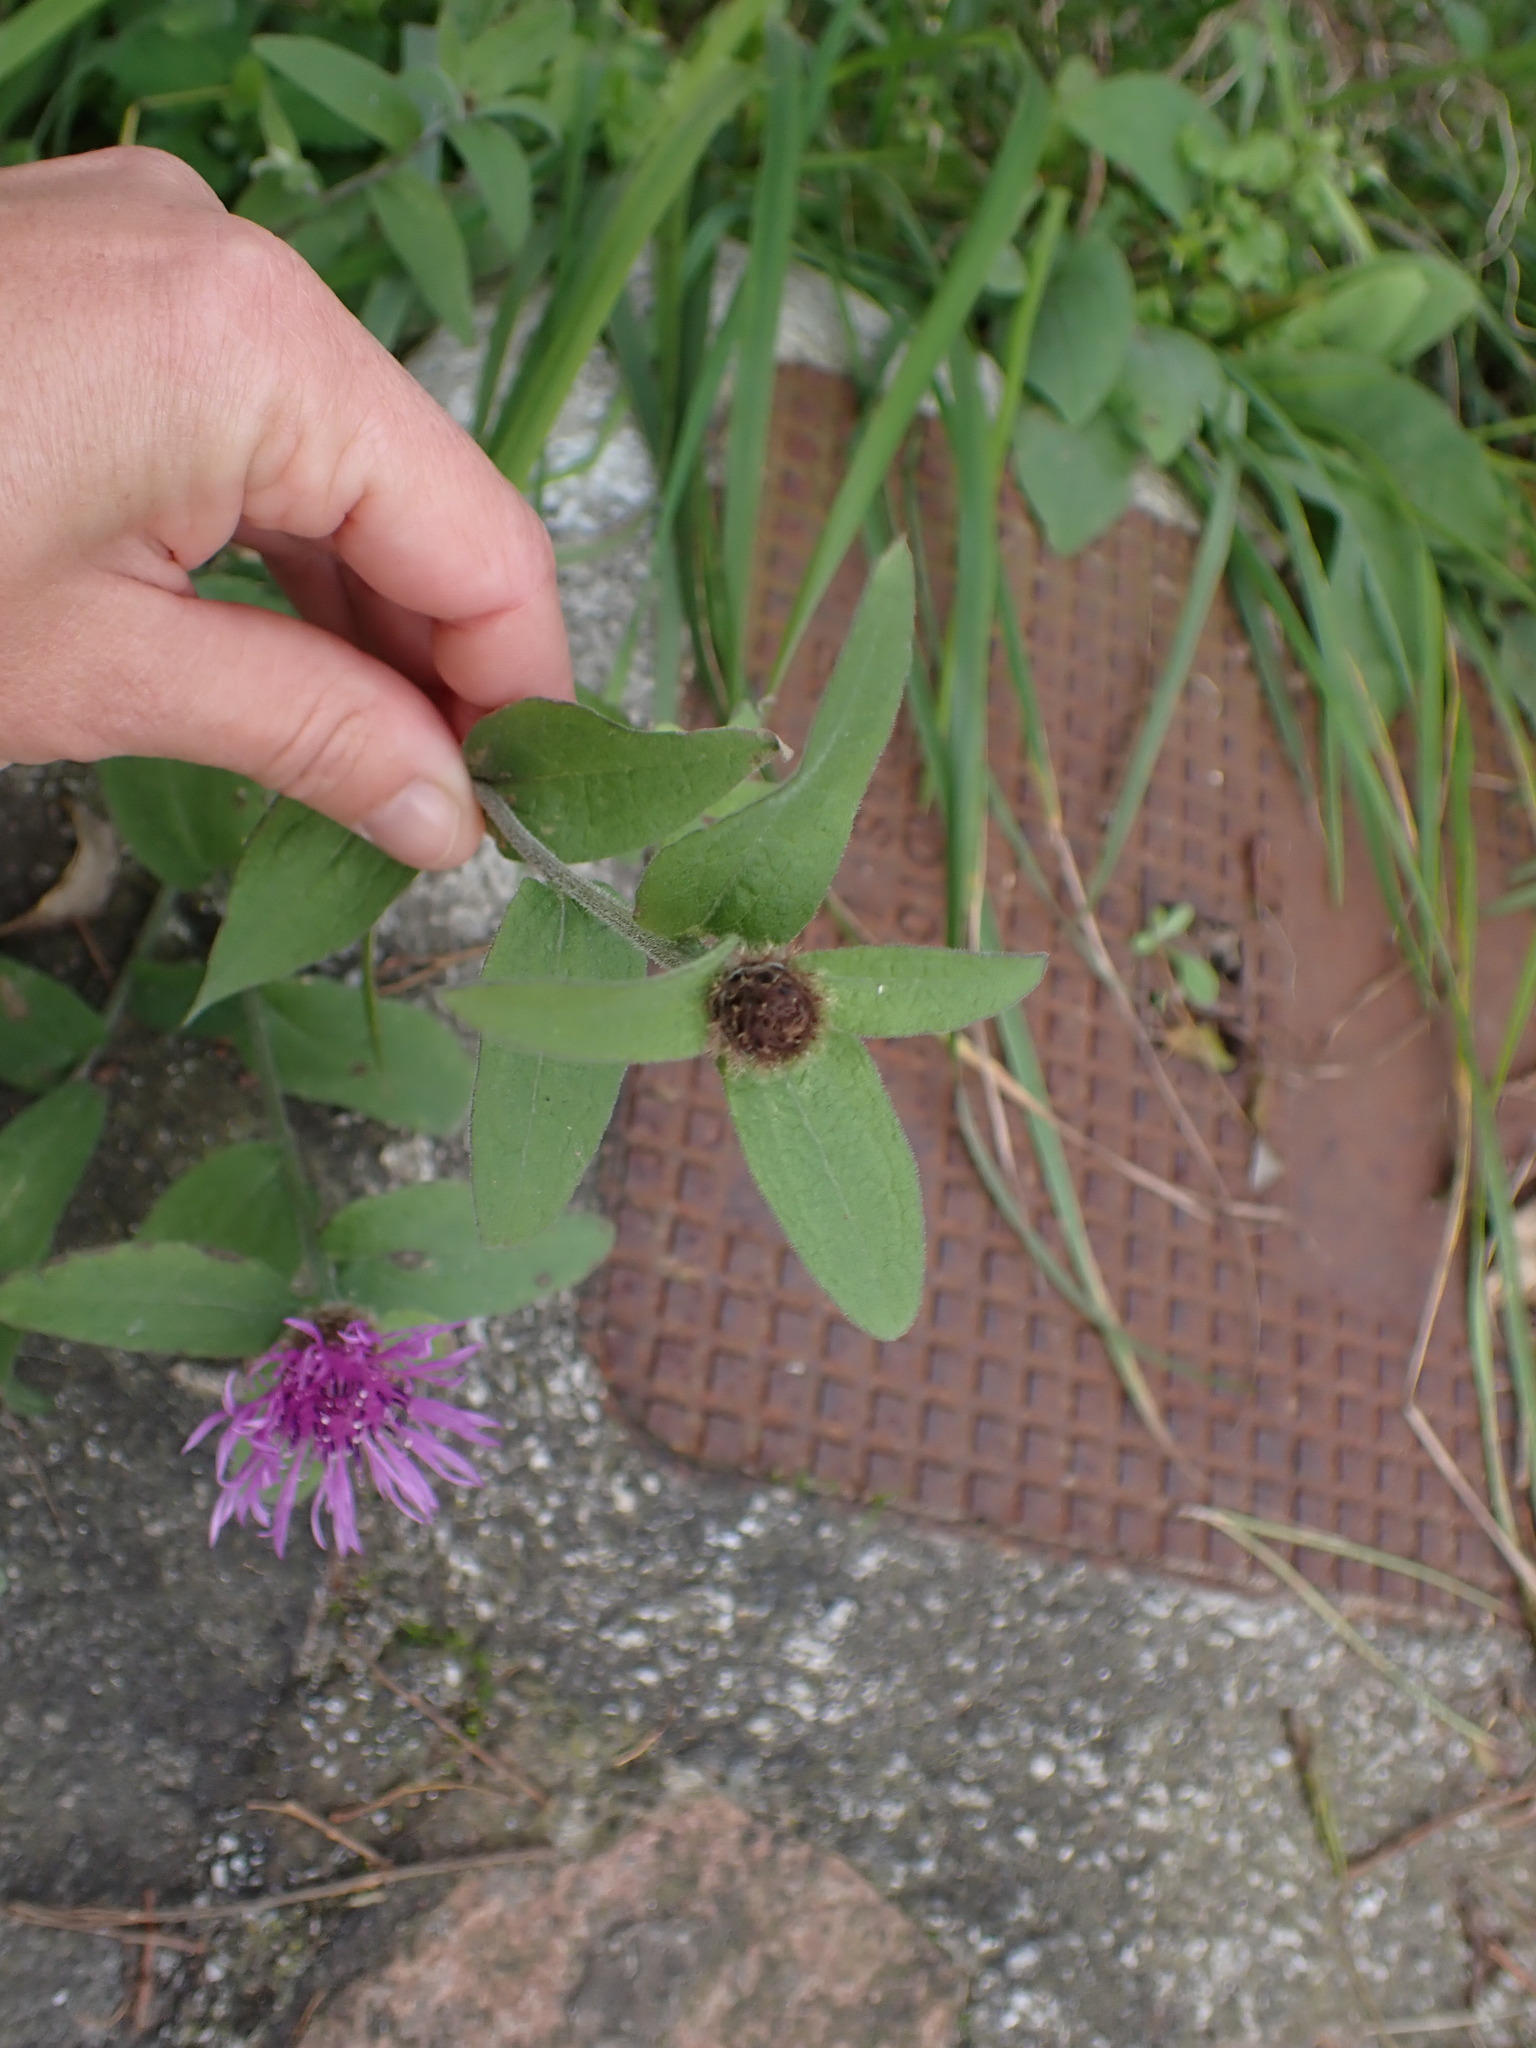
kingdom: Plantae
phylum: Tracheophyta
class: Magnoliopsida
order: Asterales
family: Asteraceae
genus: Centaurea
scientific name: Centaurea nigra
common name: Lesser knapweed
